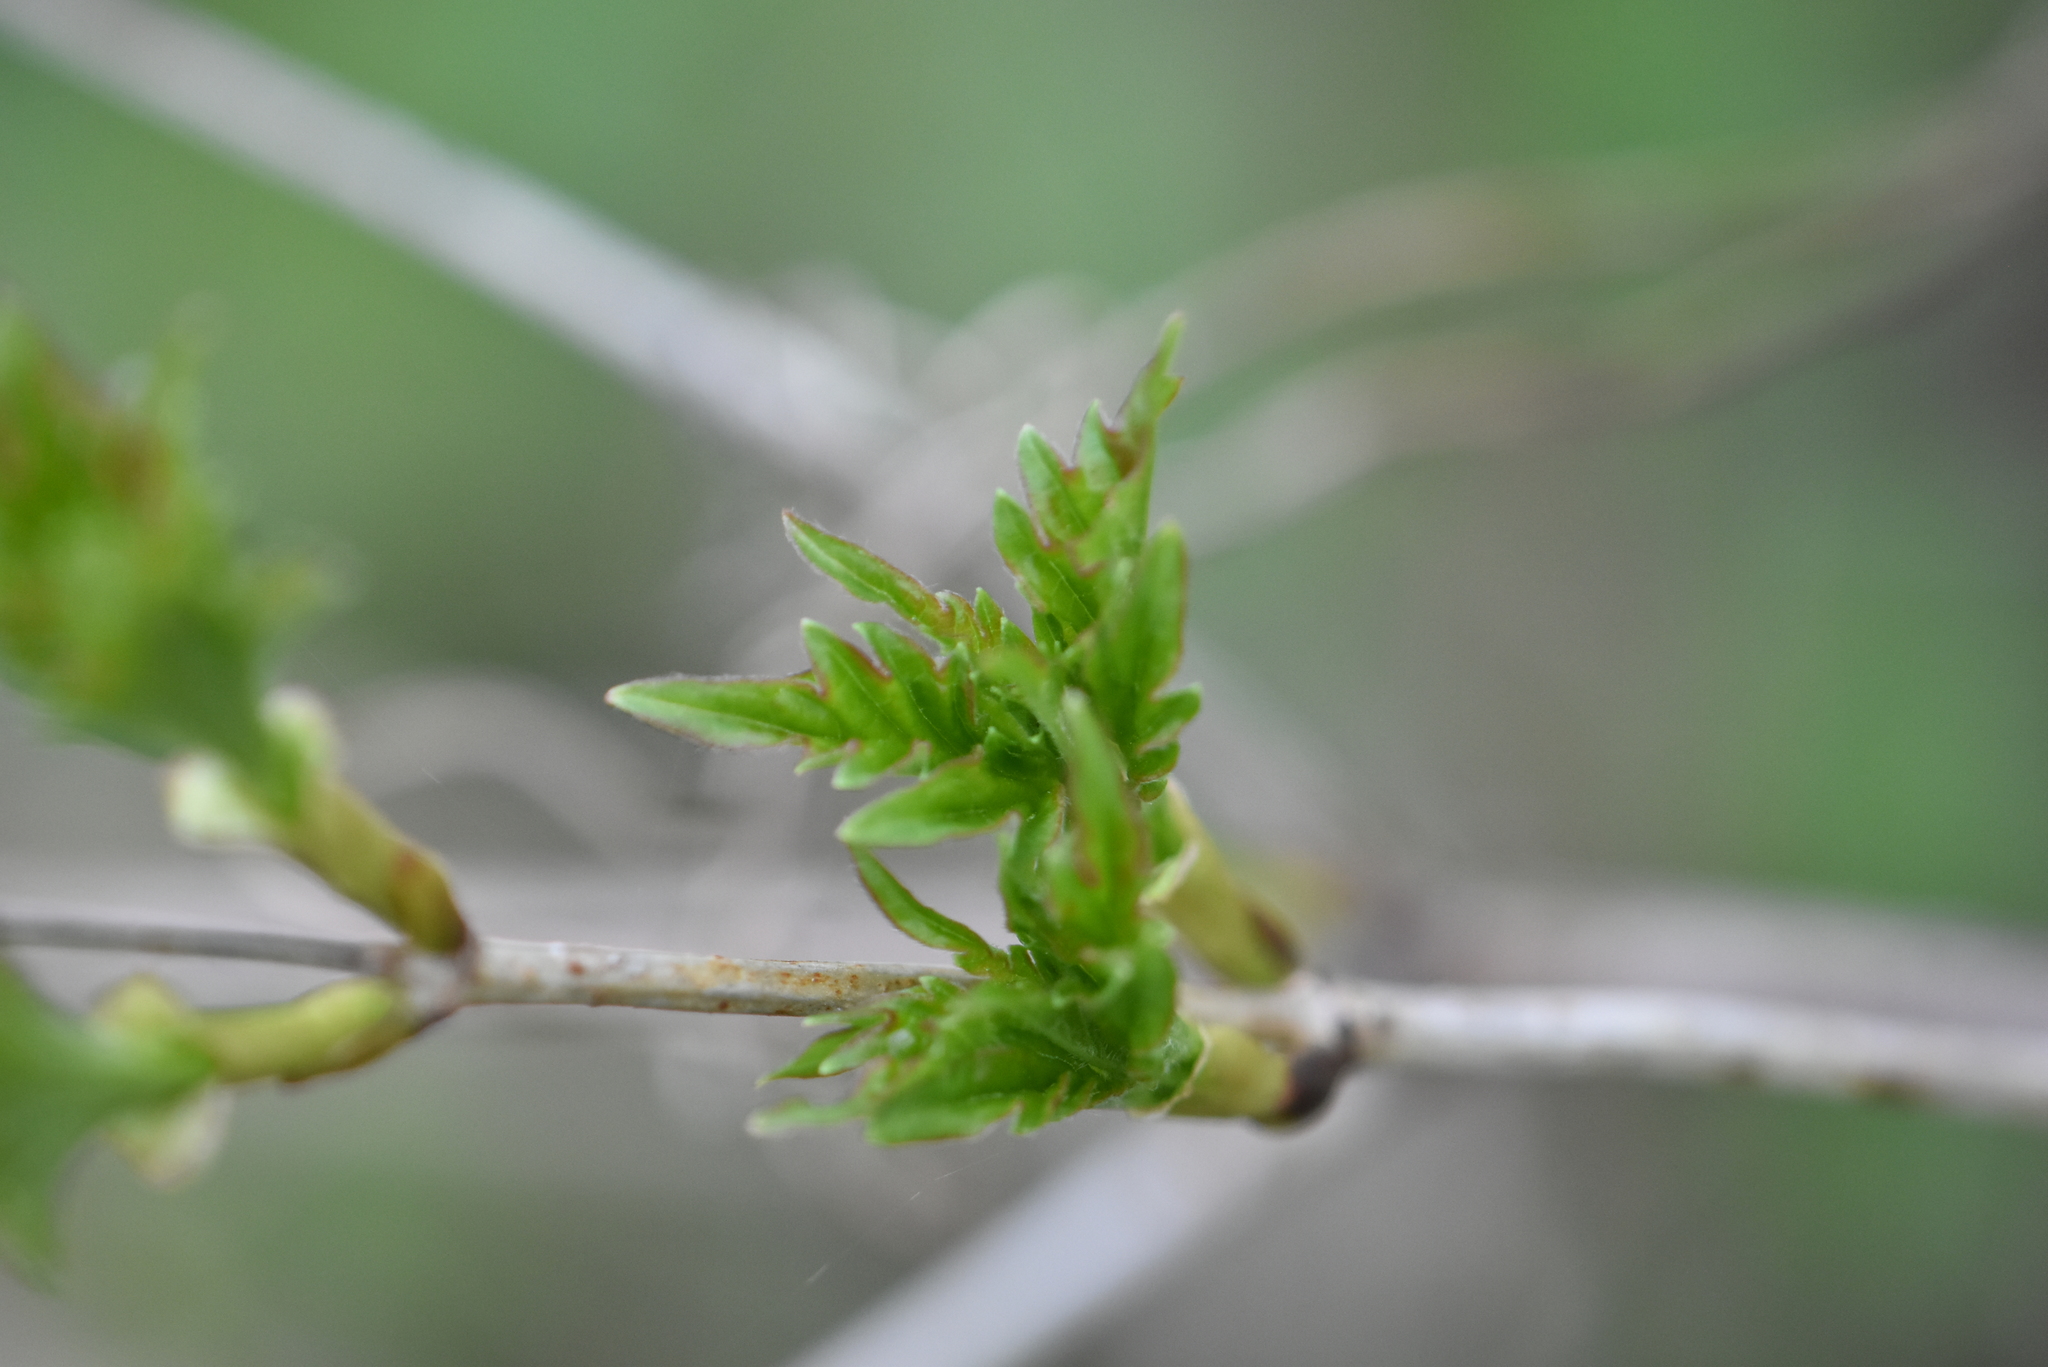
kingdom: Plantae
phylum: Tracheophyta
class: Magnoliopsida
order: Dipsacales
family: Viburnaceae
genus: Viburnum
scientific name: Viburnum opulus
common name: Guelder-rose
